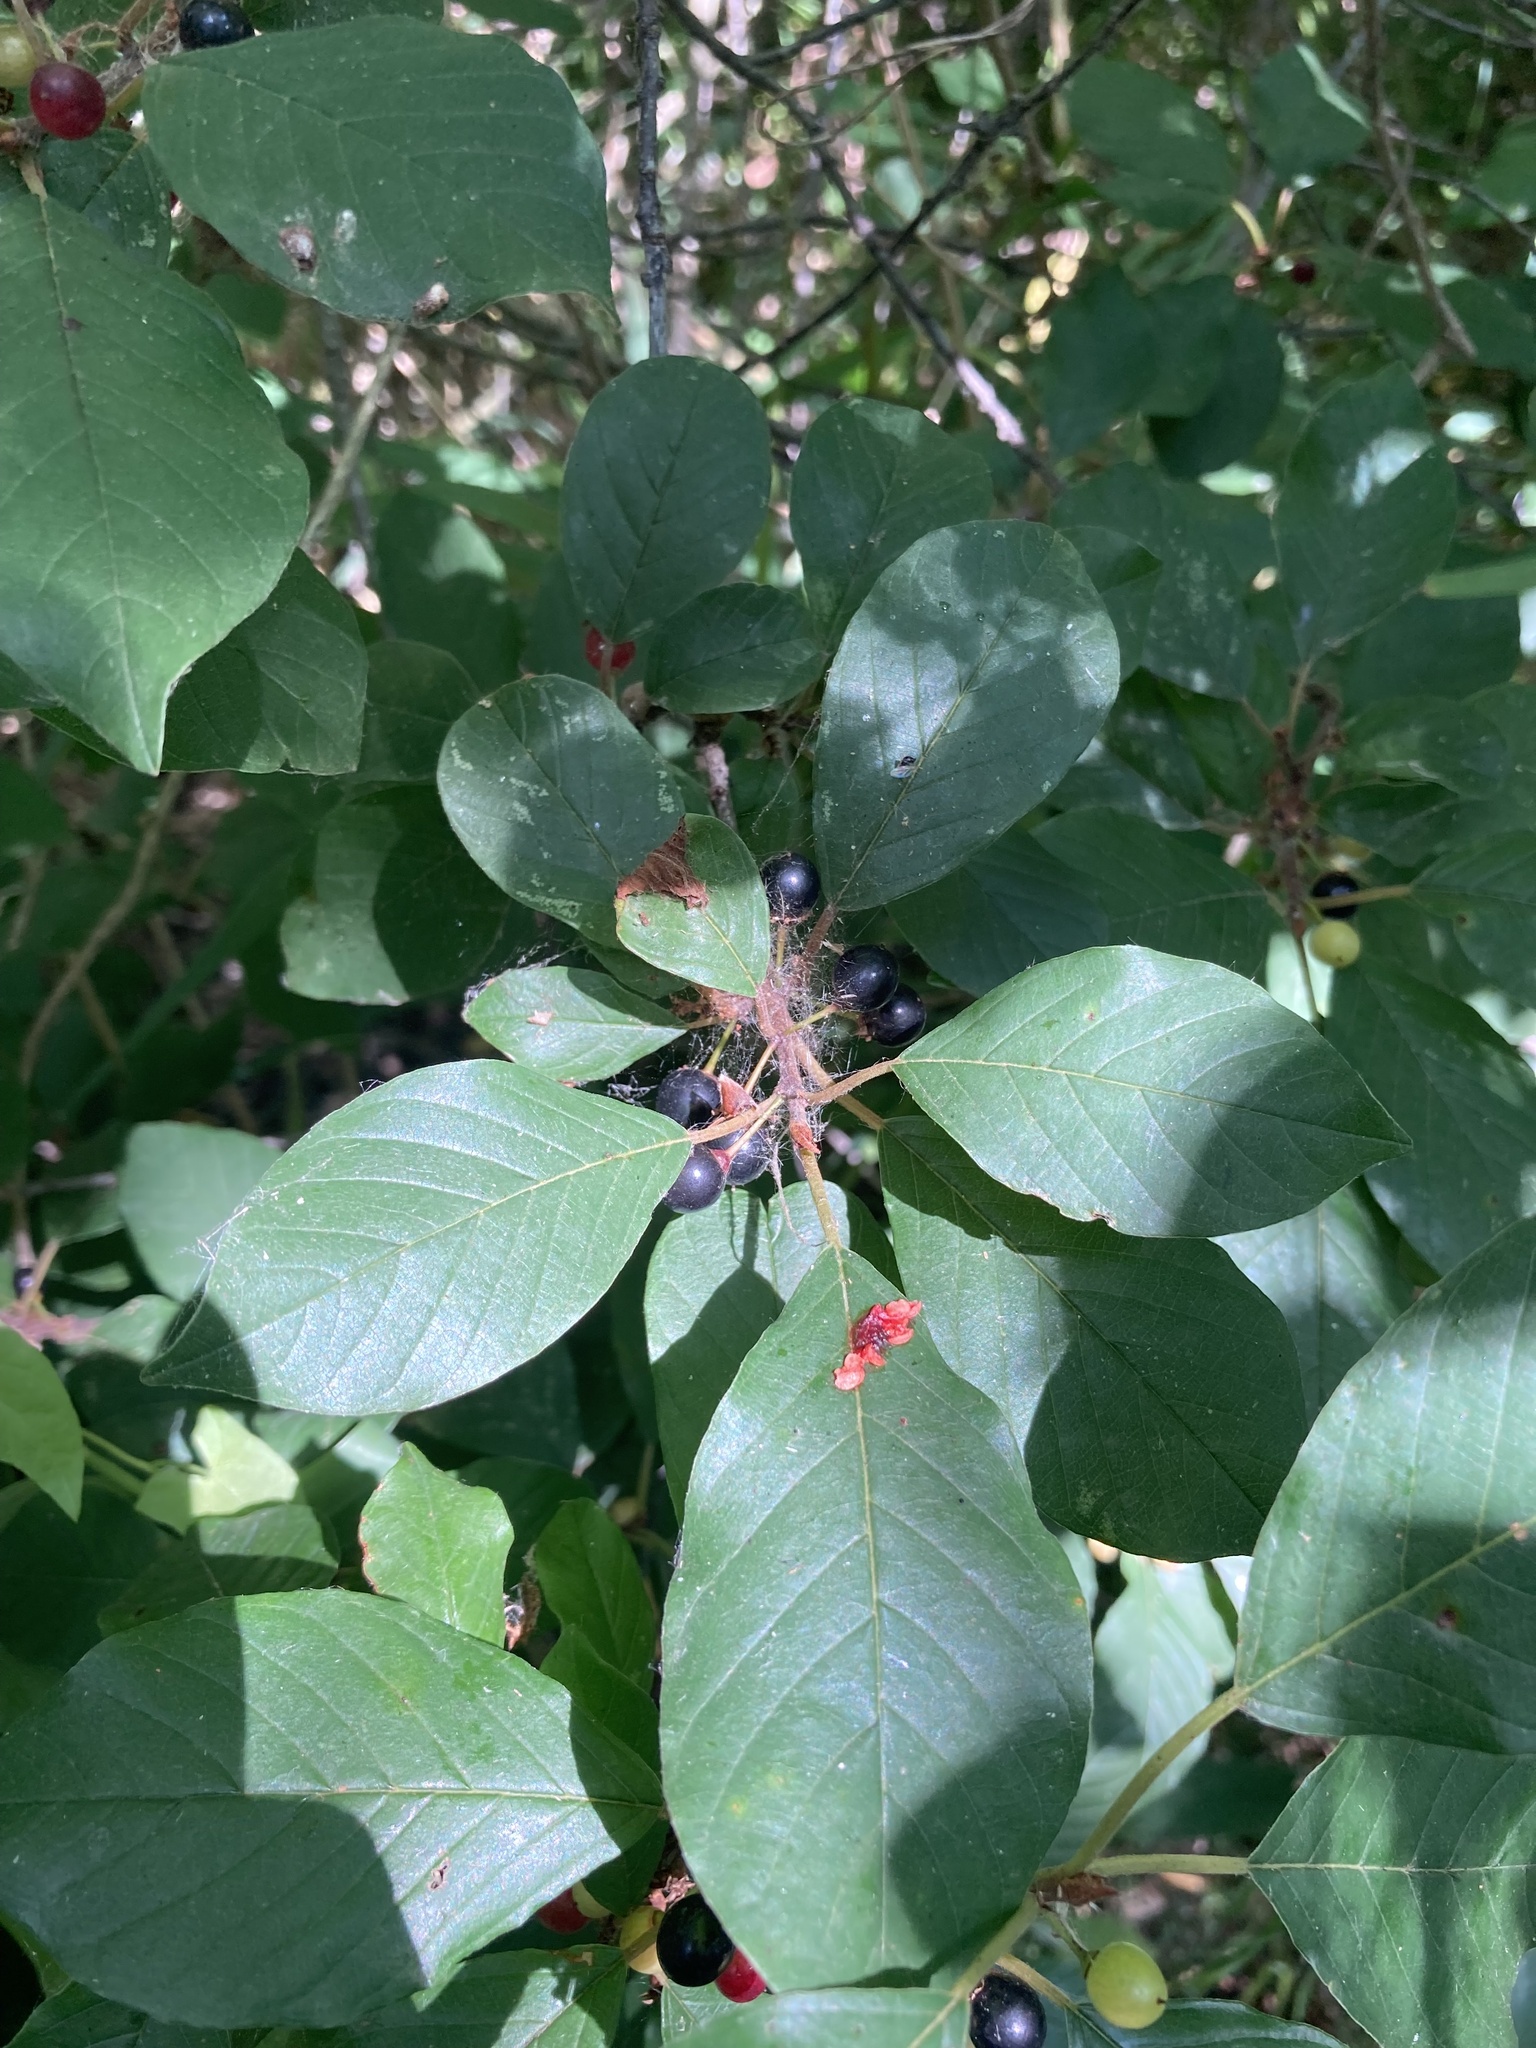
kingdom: Plantae
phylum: Tracheophyta
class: Magnoliopsida
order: Rosales
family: Rhamnaceae
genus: Frangula
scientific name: Frangula alnus
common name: Alder buckthorn
